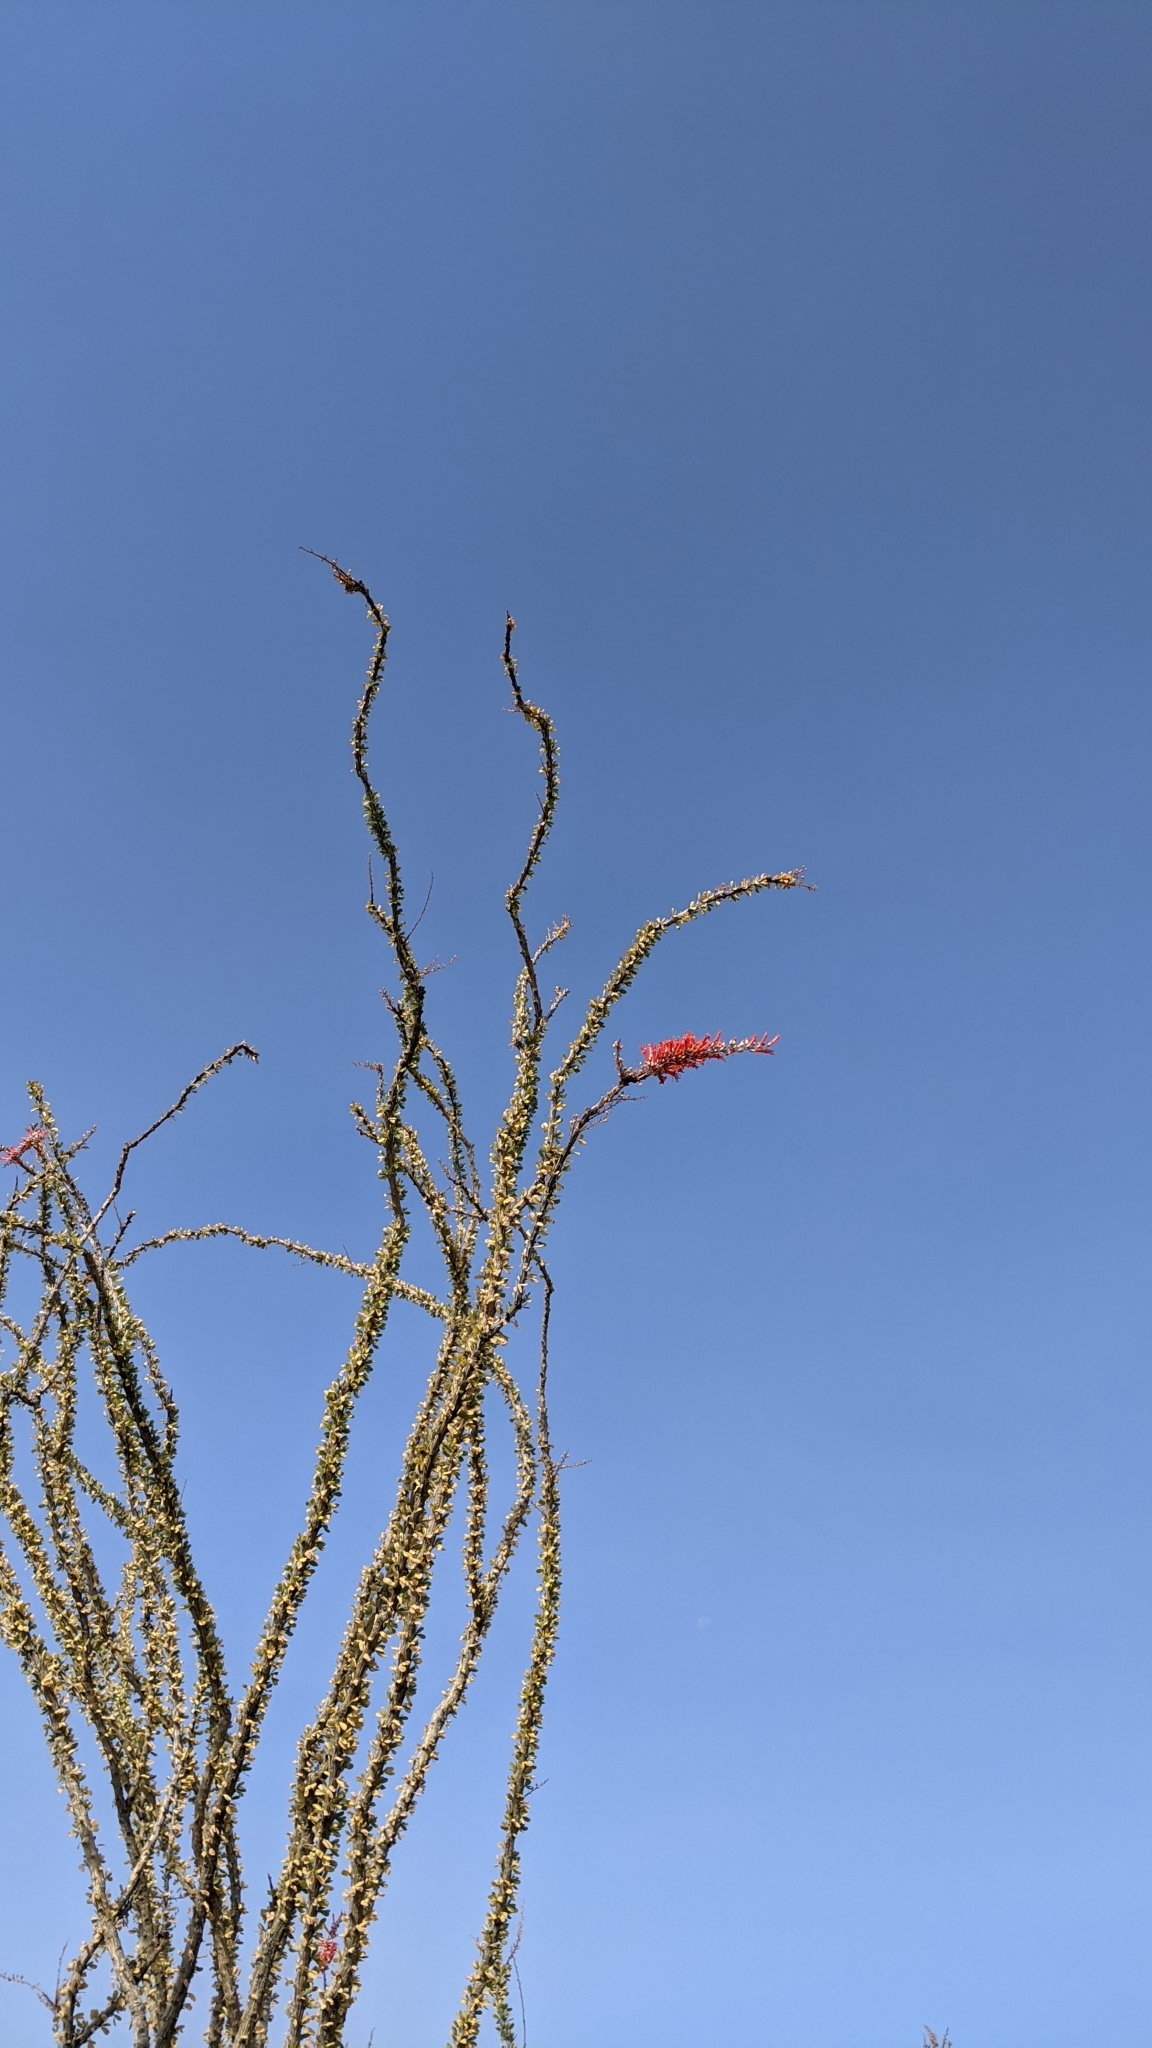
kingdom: Plantae
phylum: Tracheophyta
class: Magnoliopsida
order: Ericales
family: Fouquieriaceae
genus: Fouquieria
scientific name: Fouquieria splendens
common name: Vine-cactus
